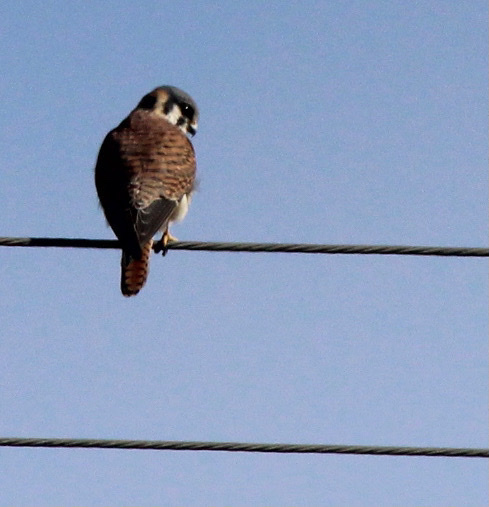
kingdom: Animalia
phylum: Chordata
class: Aves
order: Falconiformes
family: Falconidae
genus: Falco
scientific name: Falco sparverius
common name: American kestrel
